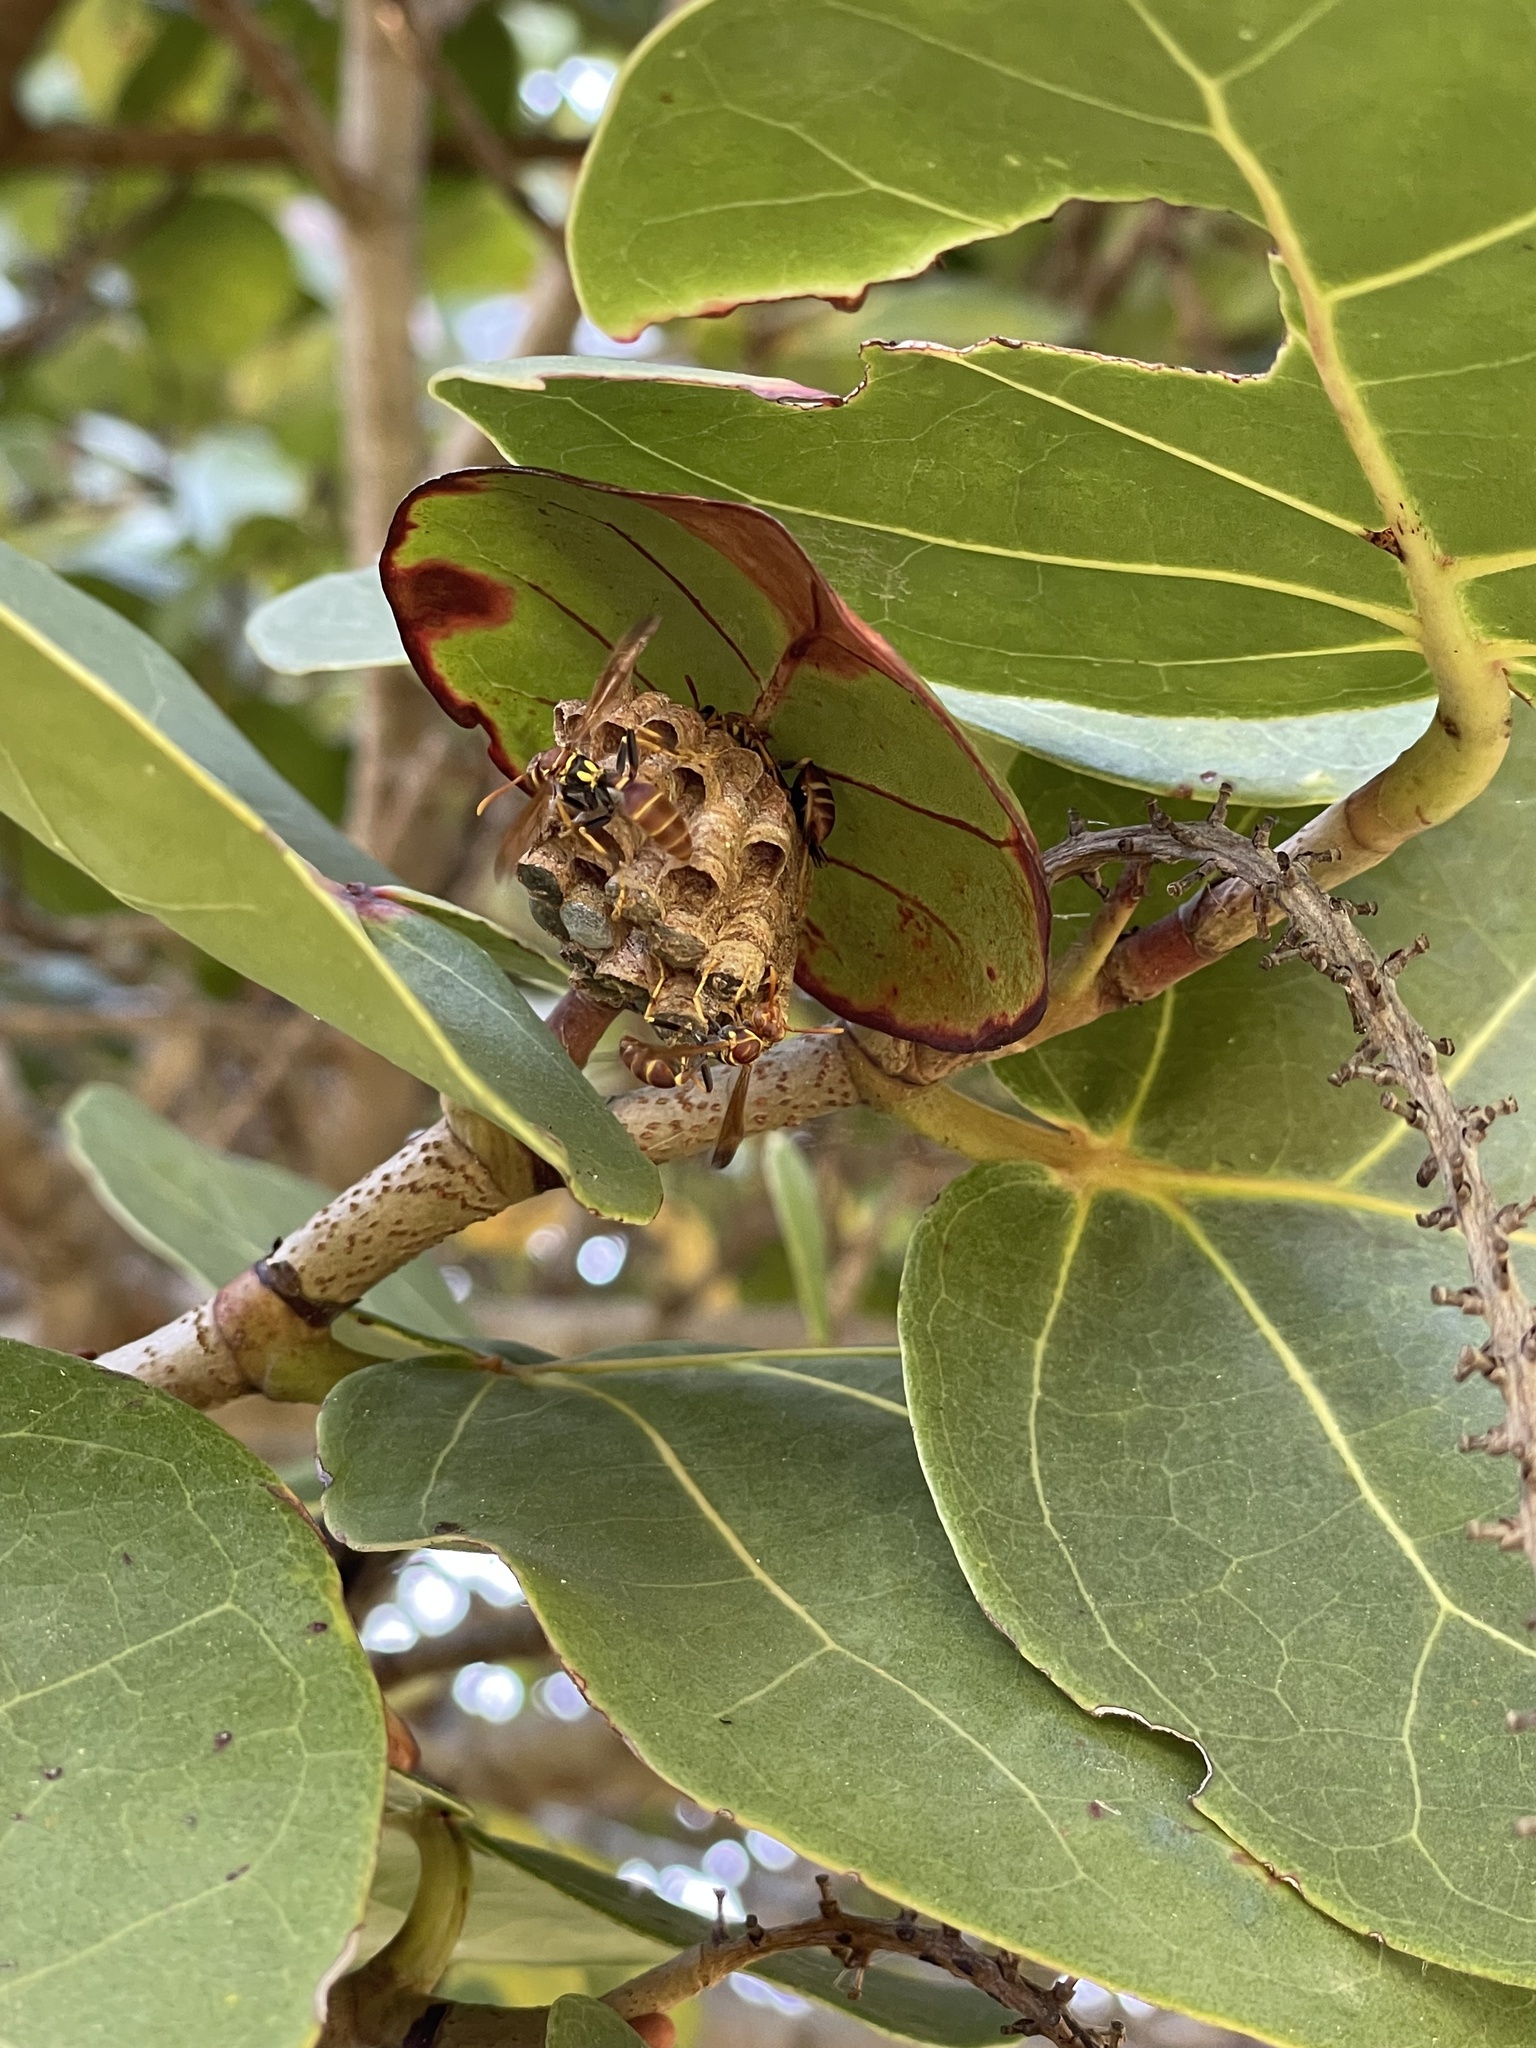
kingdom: Animalia
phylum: Arthropoda
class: Insecta
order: Hymenoptera
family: Vespidae
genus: Mischocyttarus
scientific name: Mischocyttarus mexicanus
